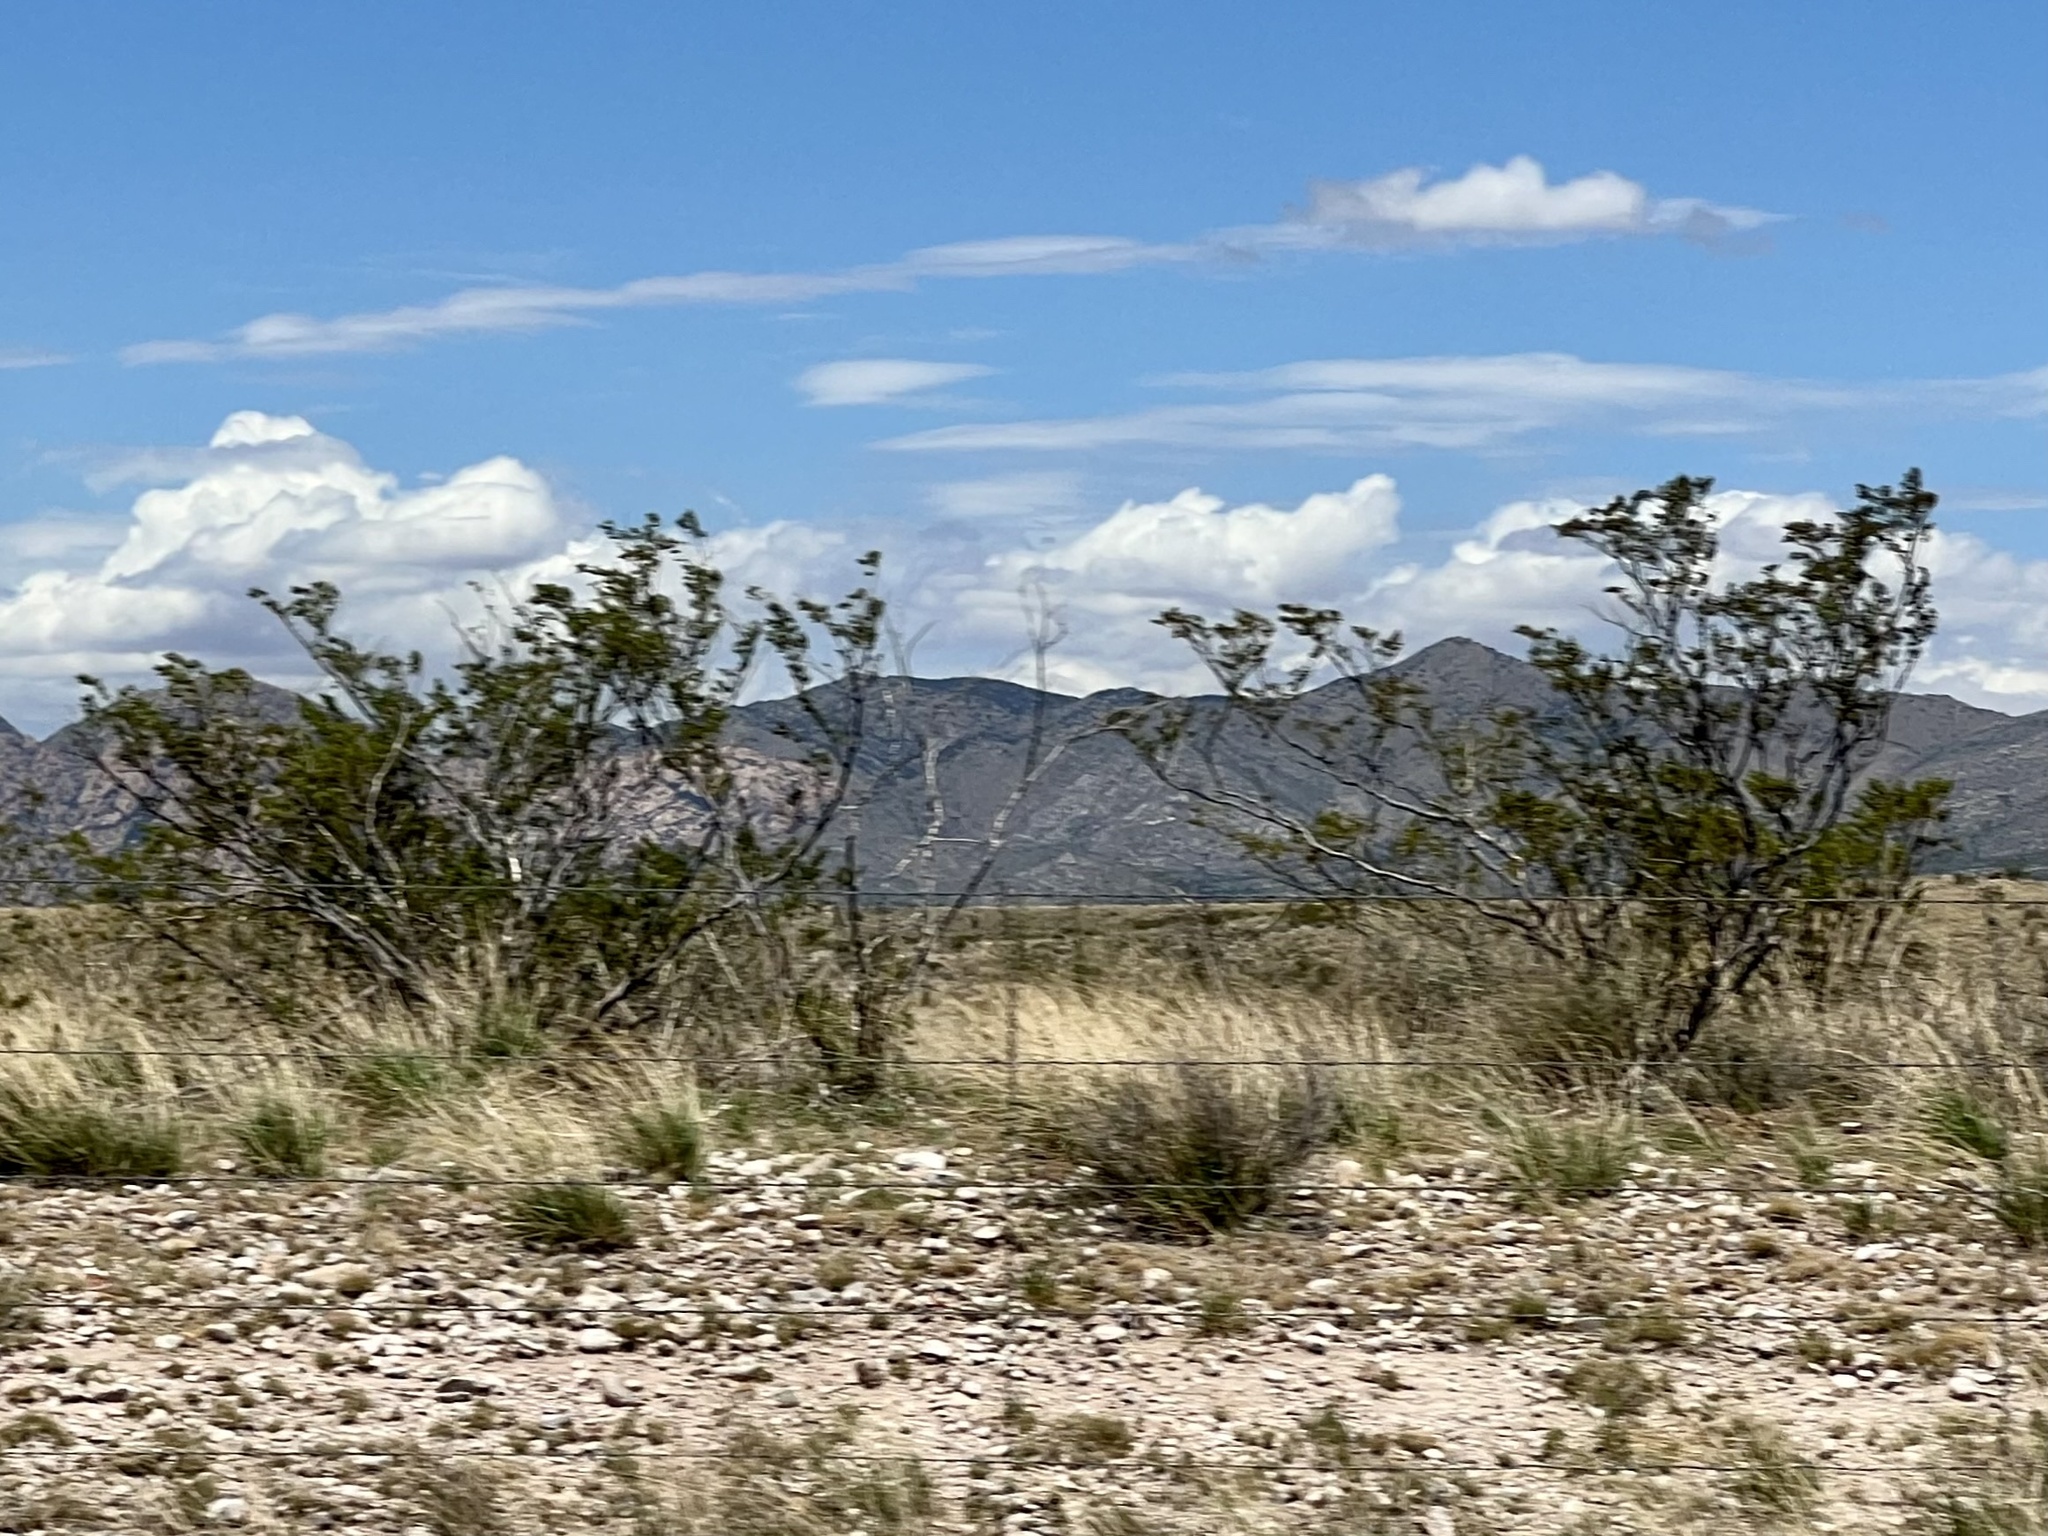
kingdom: Plantae
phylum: Tracheophyta
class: Magnoliopsida
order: Zygophyllales
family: Zygophyllaceae
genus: Larrea
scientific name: Larrea tridentata
